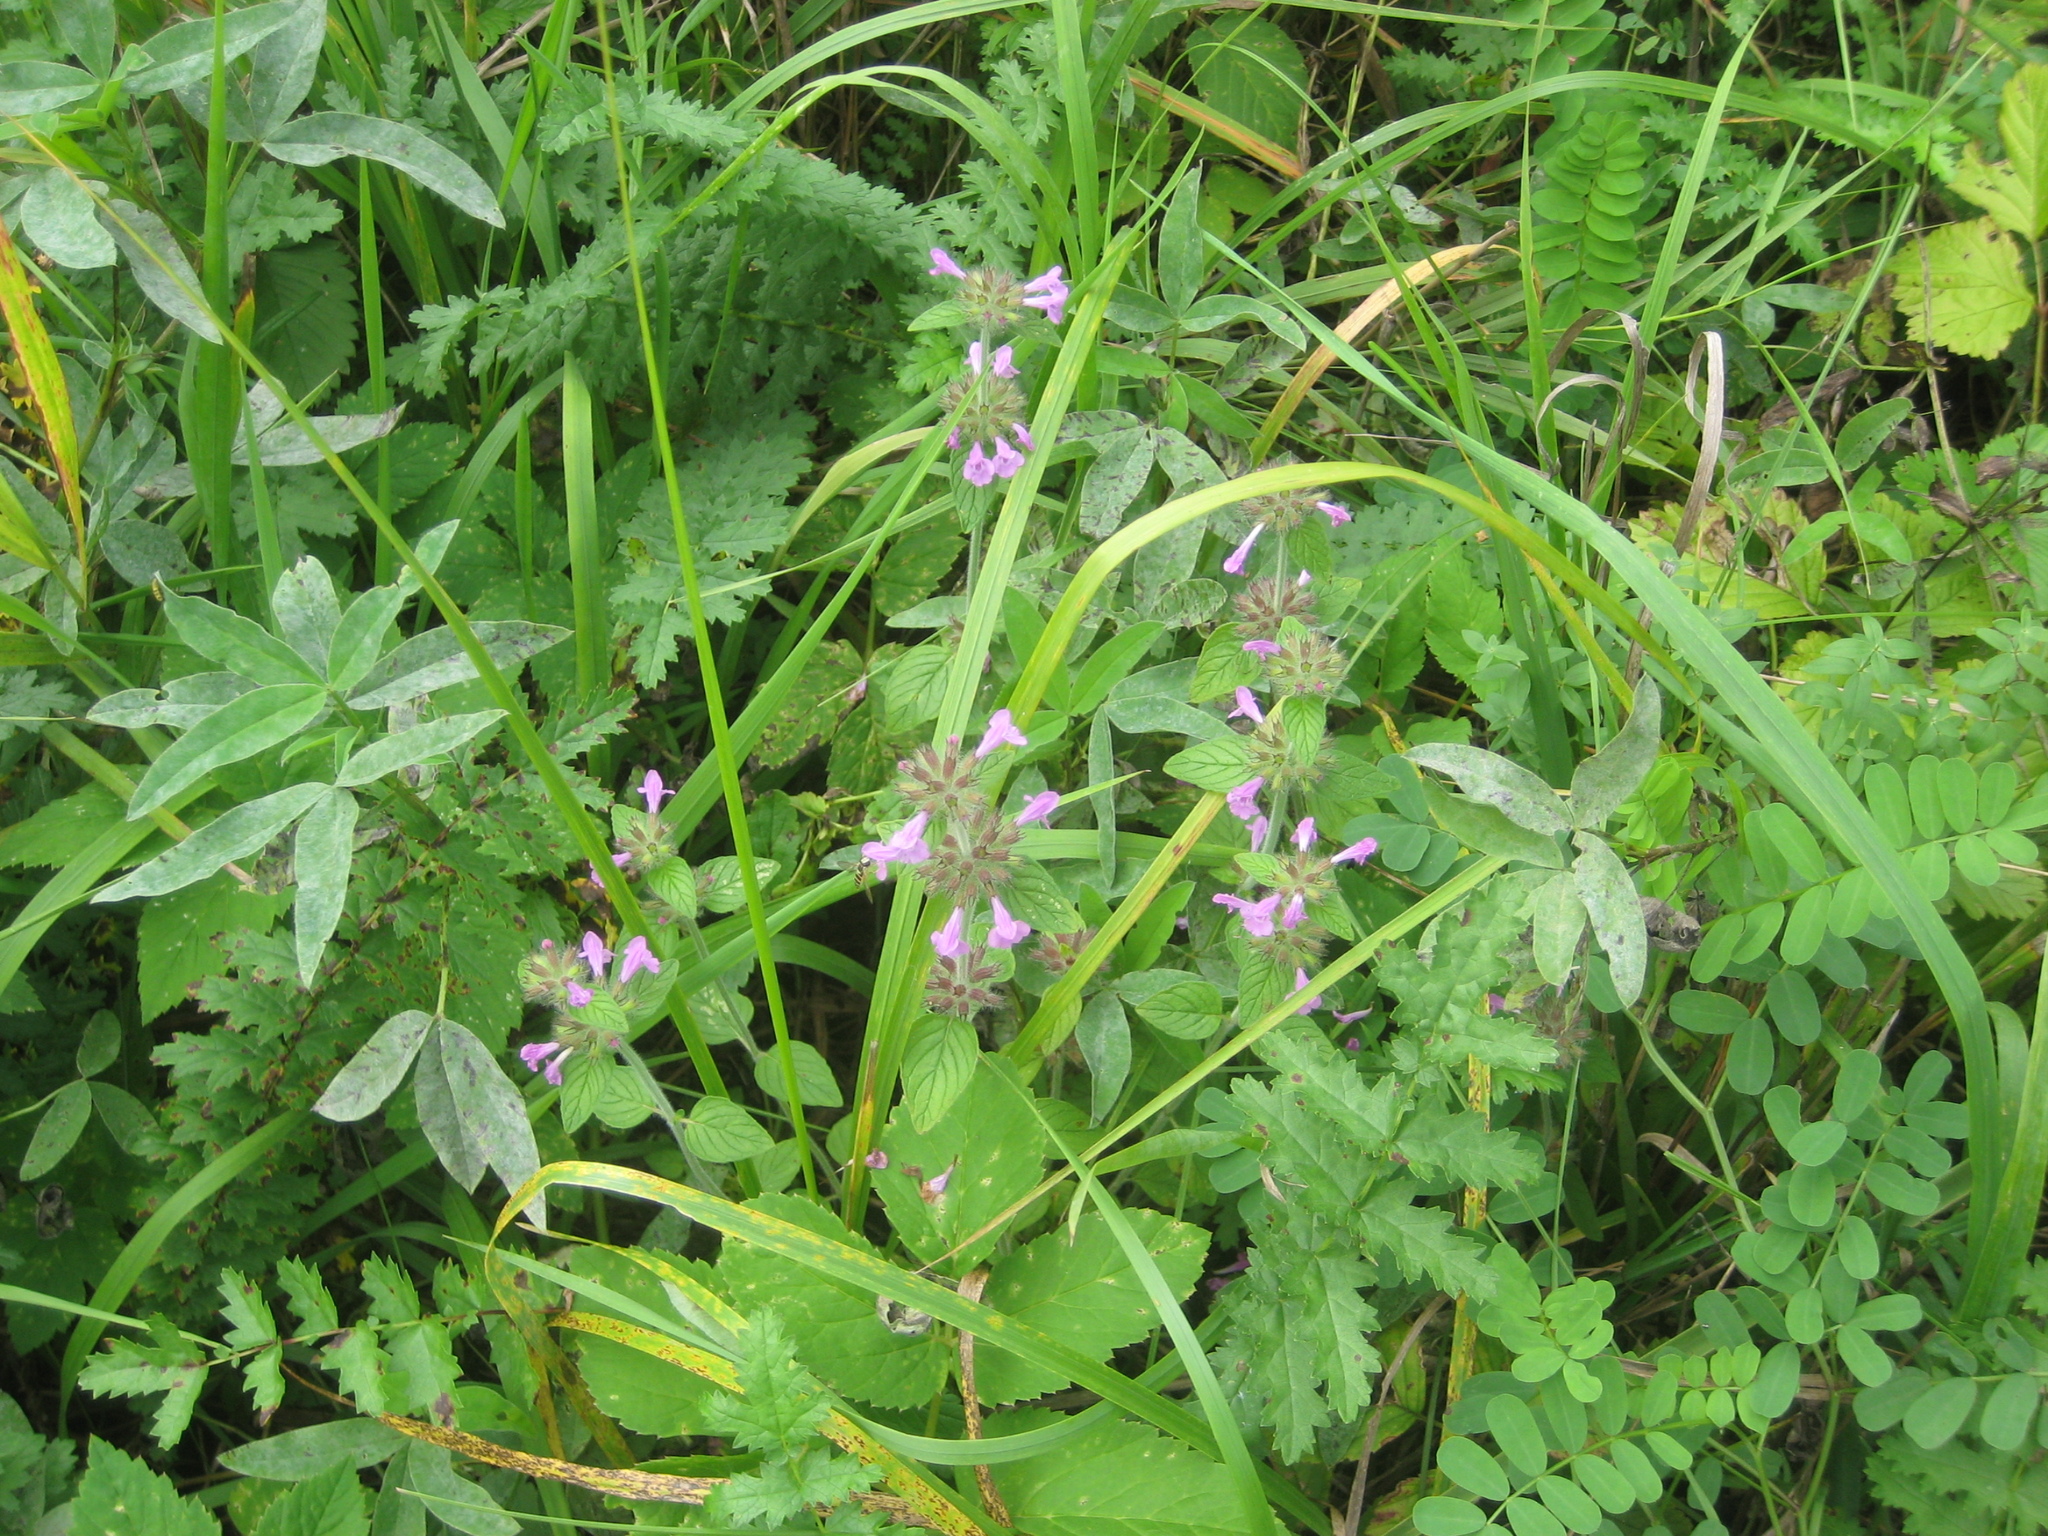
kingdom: Plantae
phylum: Tracheophyta
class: Magnoliopsida
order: Lamiales
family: Lamiaceae
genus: Clinopodium
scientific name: Clinopodium vulgare
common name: Wild basil
